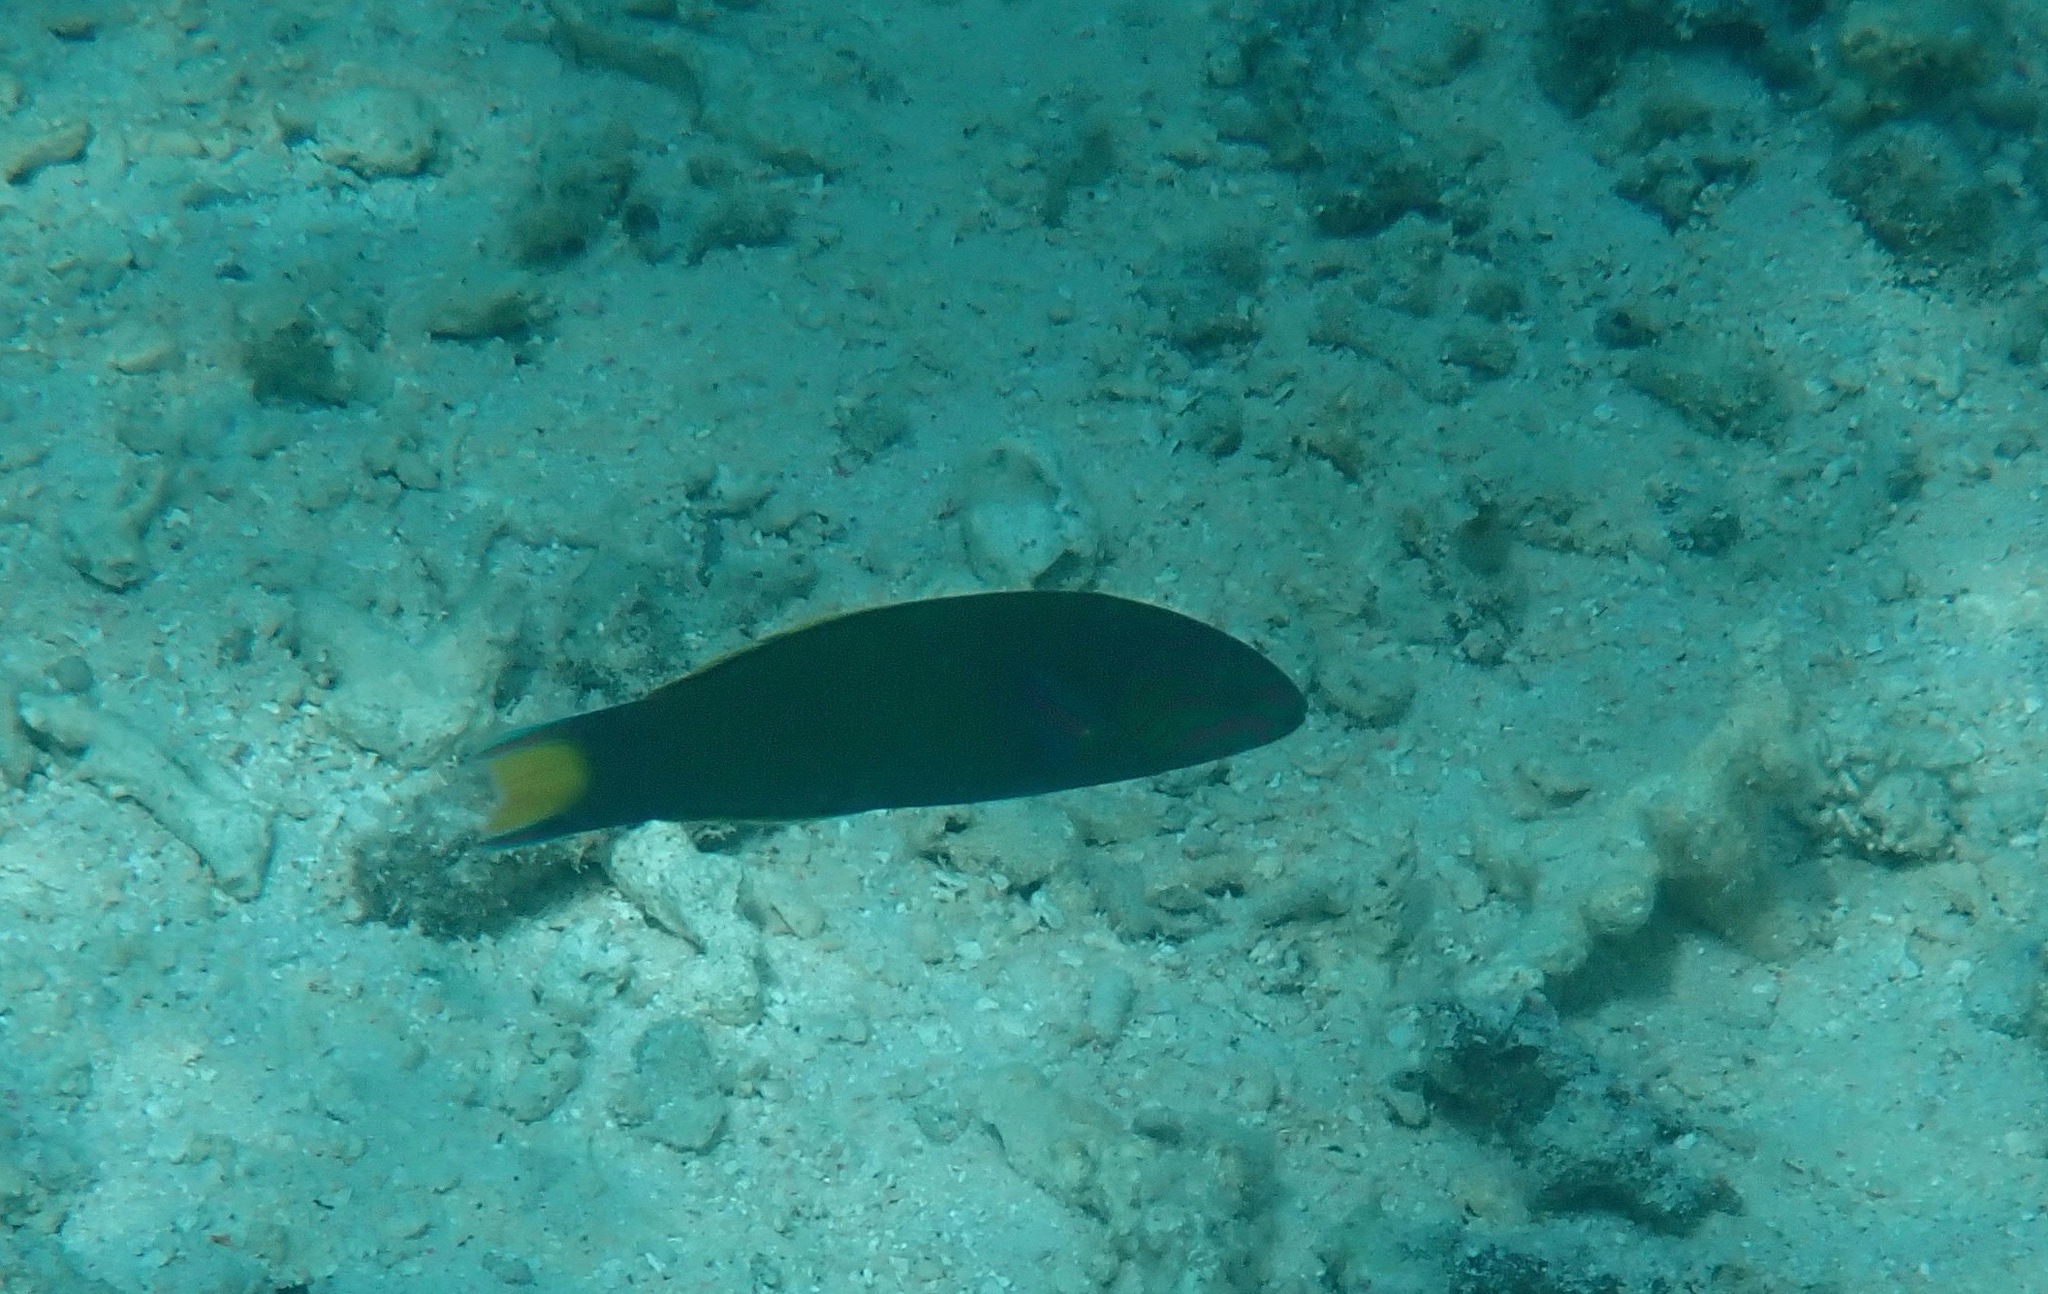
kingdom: Animalia
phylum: Chordata
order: Perciformes
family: Labridae
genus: Thalassoma
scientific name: Thalassoma lunare
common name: Blue wrasse
